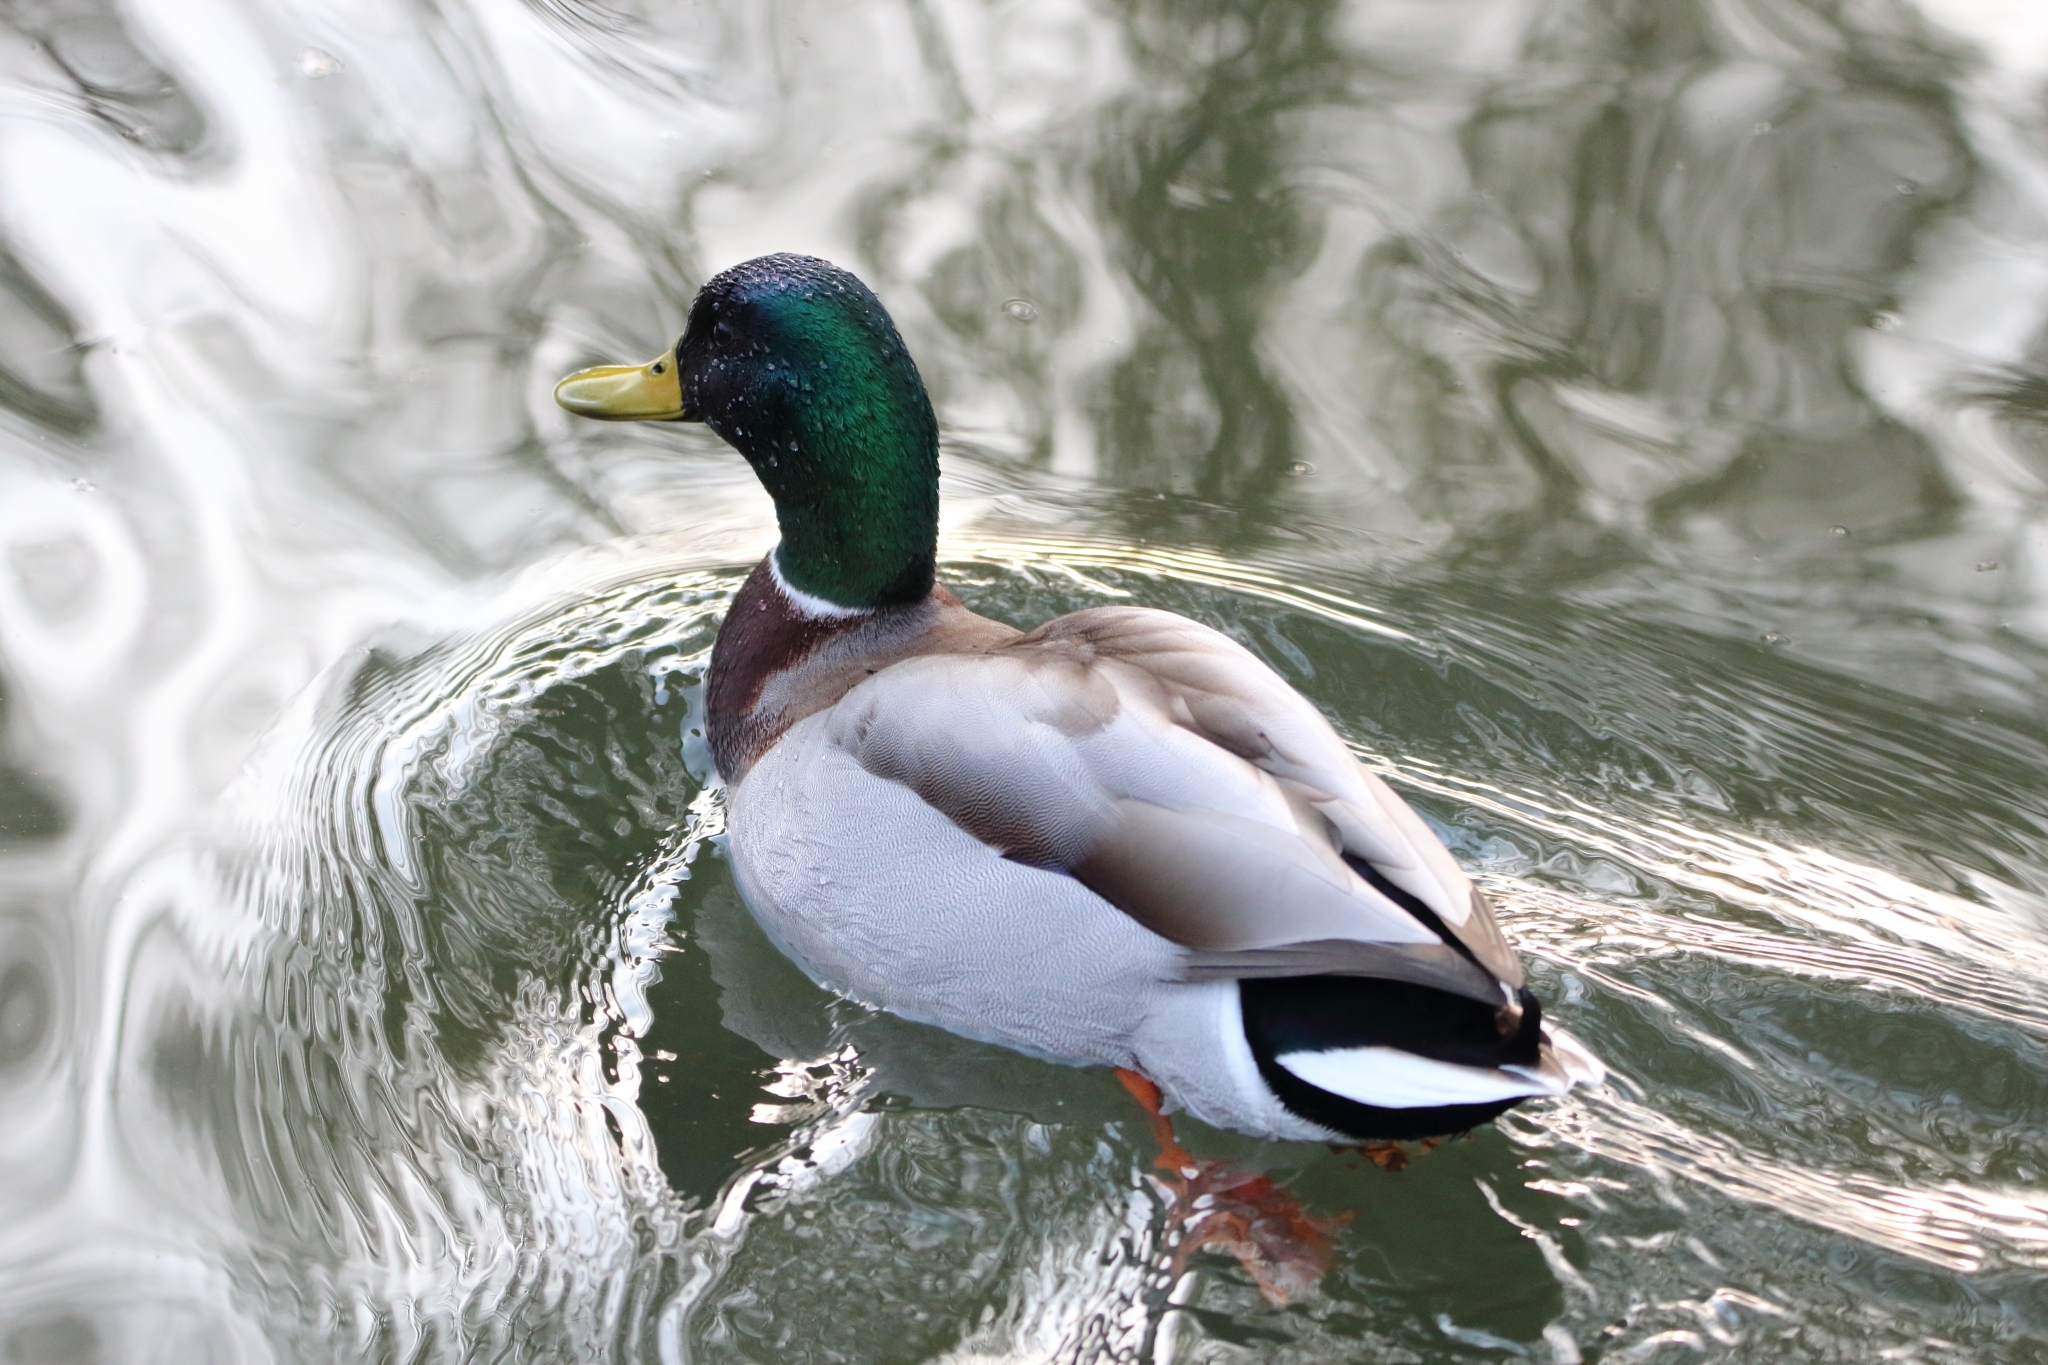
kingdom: Animalia
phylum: Chordata
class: Aves
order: Anseriformes
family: Anatidae
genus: Anas
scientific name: Anas platyrhynchos
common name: Mallard
